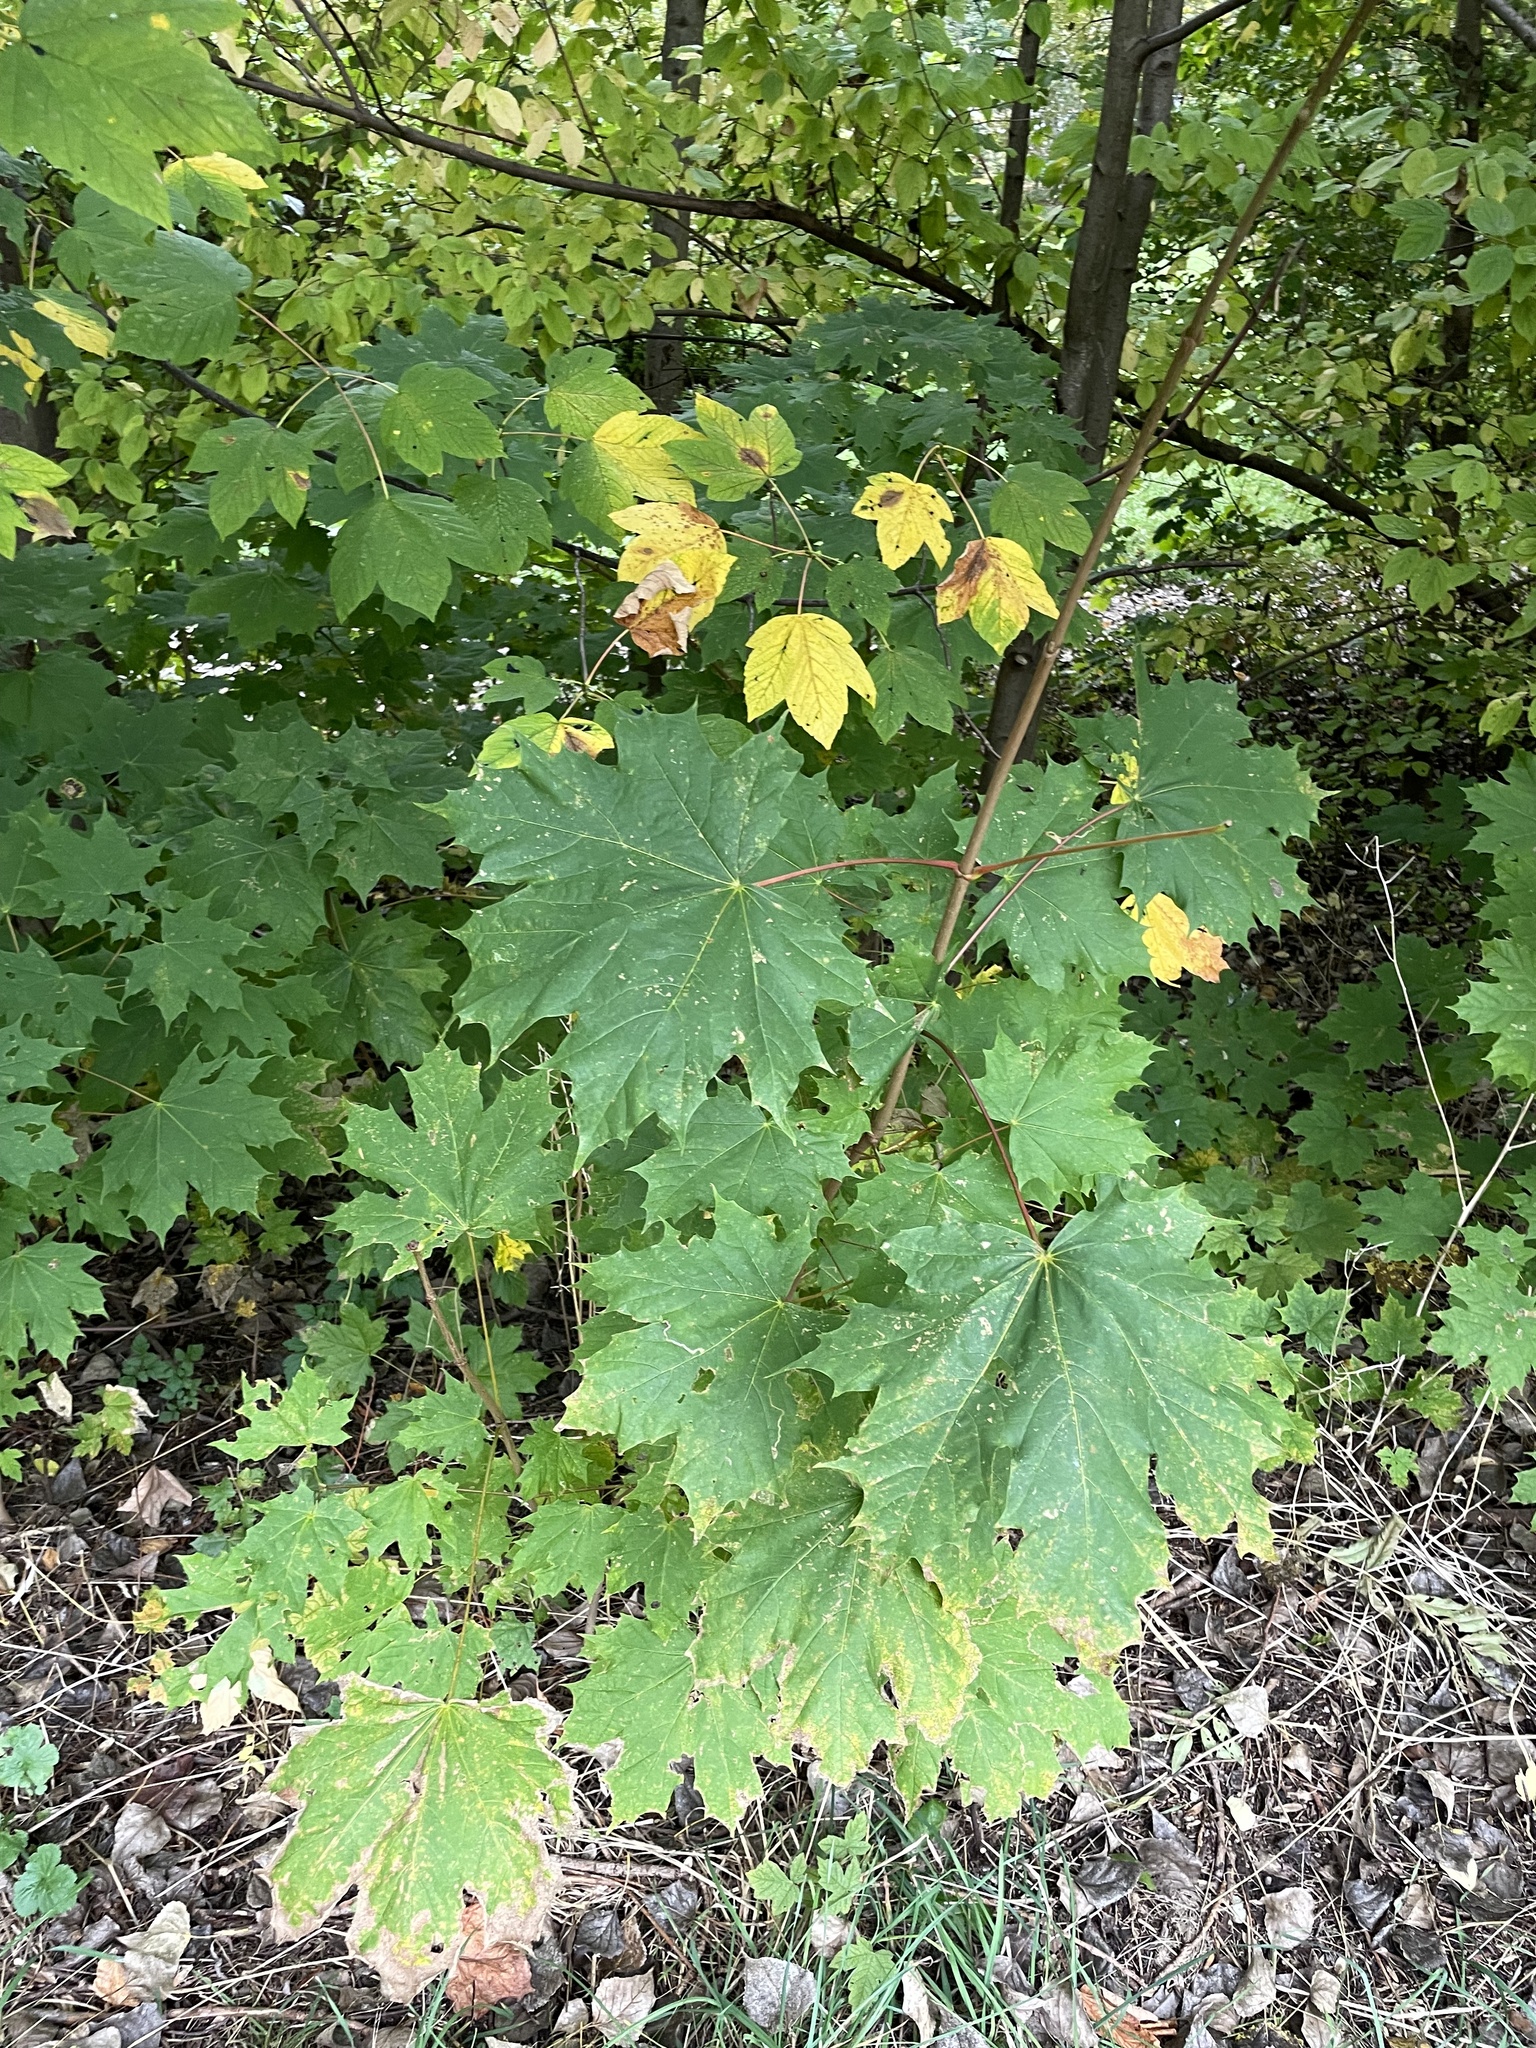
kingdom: Plantae
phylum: Tracheophyta
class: Magnoliopsida
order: Sapindales
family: Sapindaceae
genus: Acer
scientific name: Acer platanoides
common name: Norway maple
